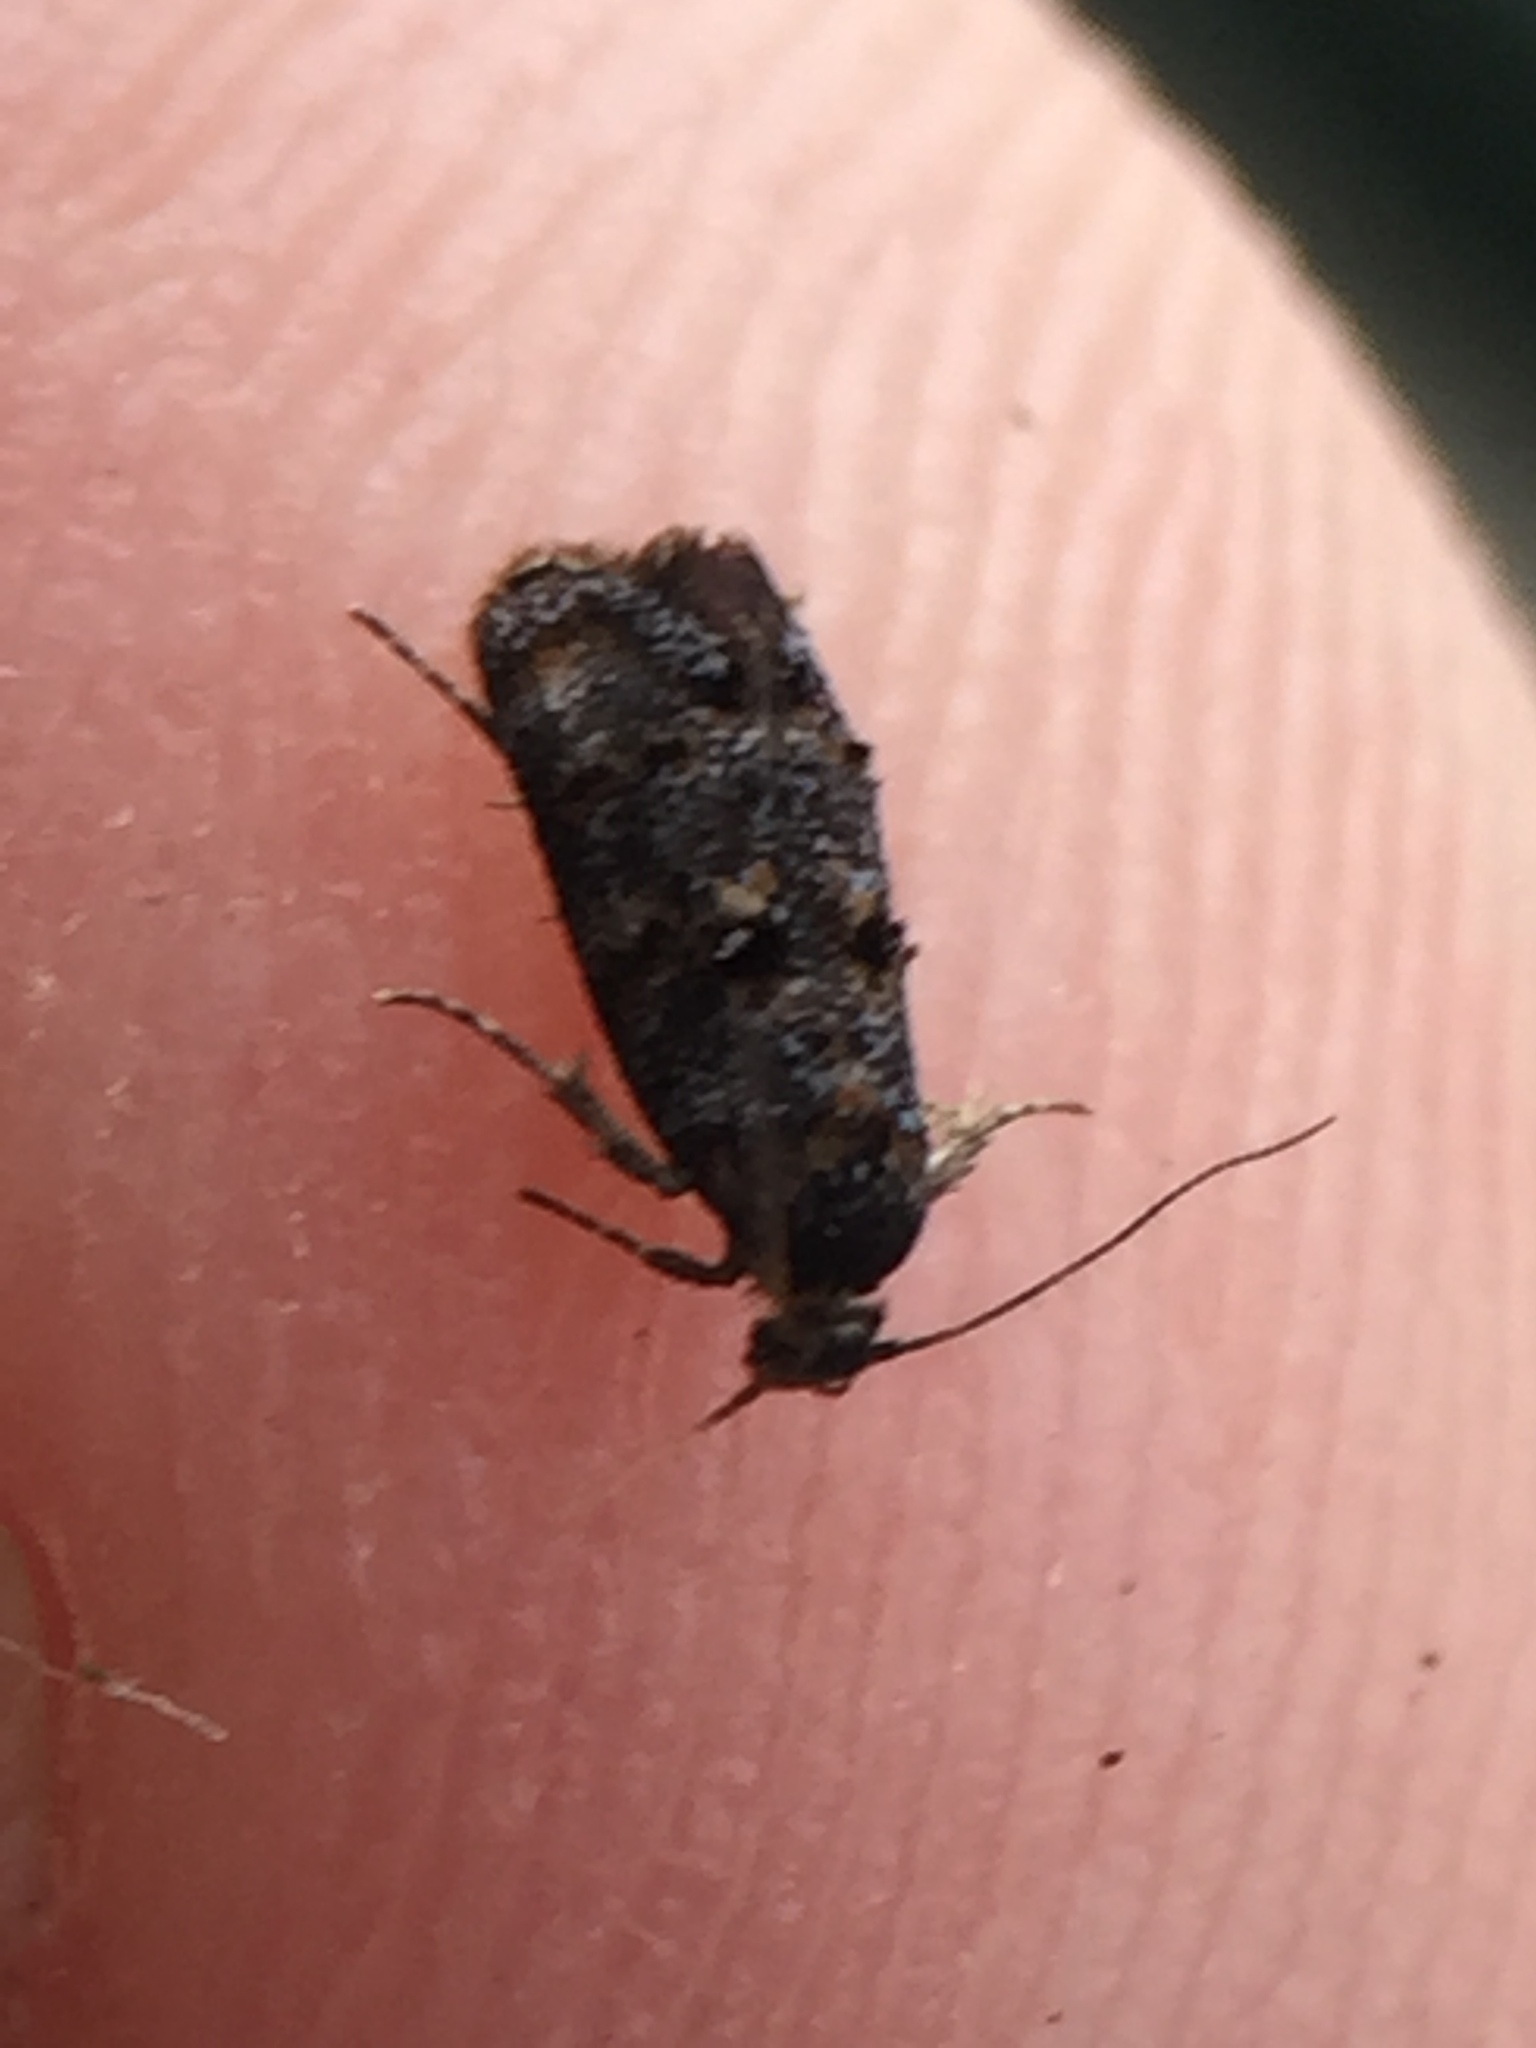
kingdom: Animalia
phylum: Arthropoda
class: Insecta
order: Lepidoptera
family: Oecophoridae
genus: Corocosma
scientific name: Corocosma memorabilis
